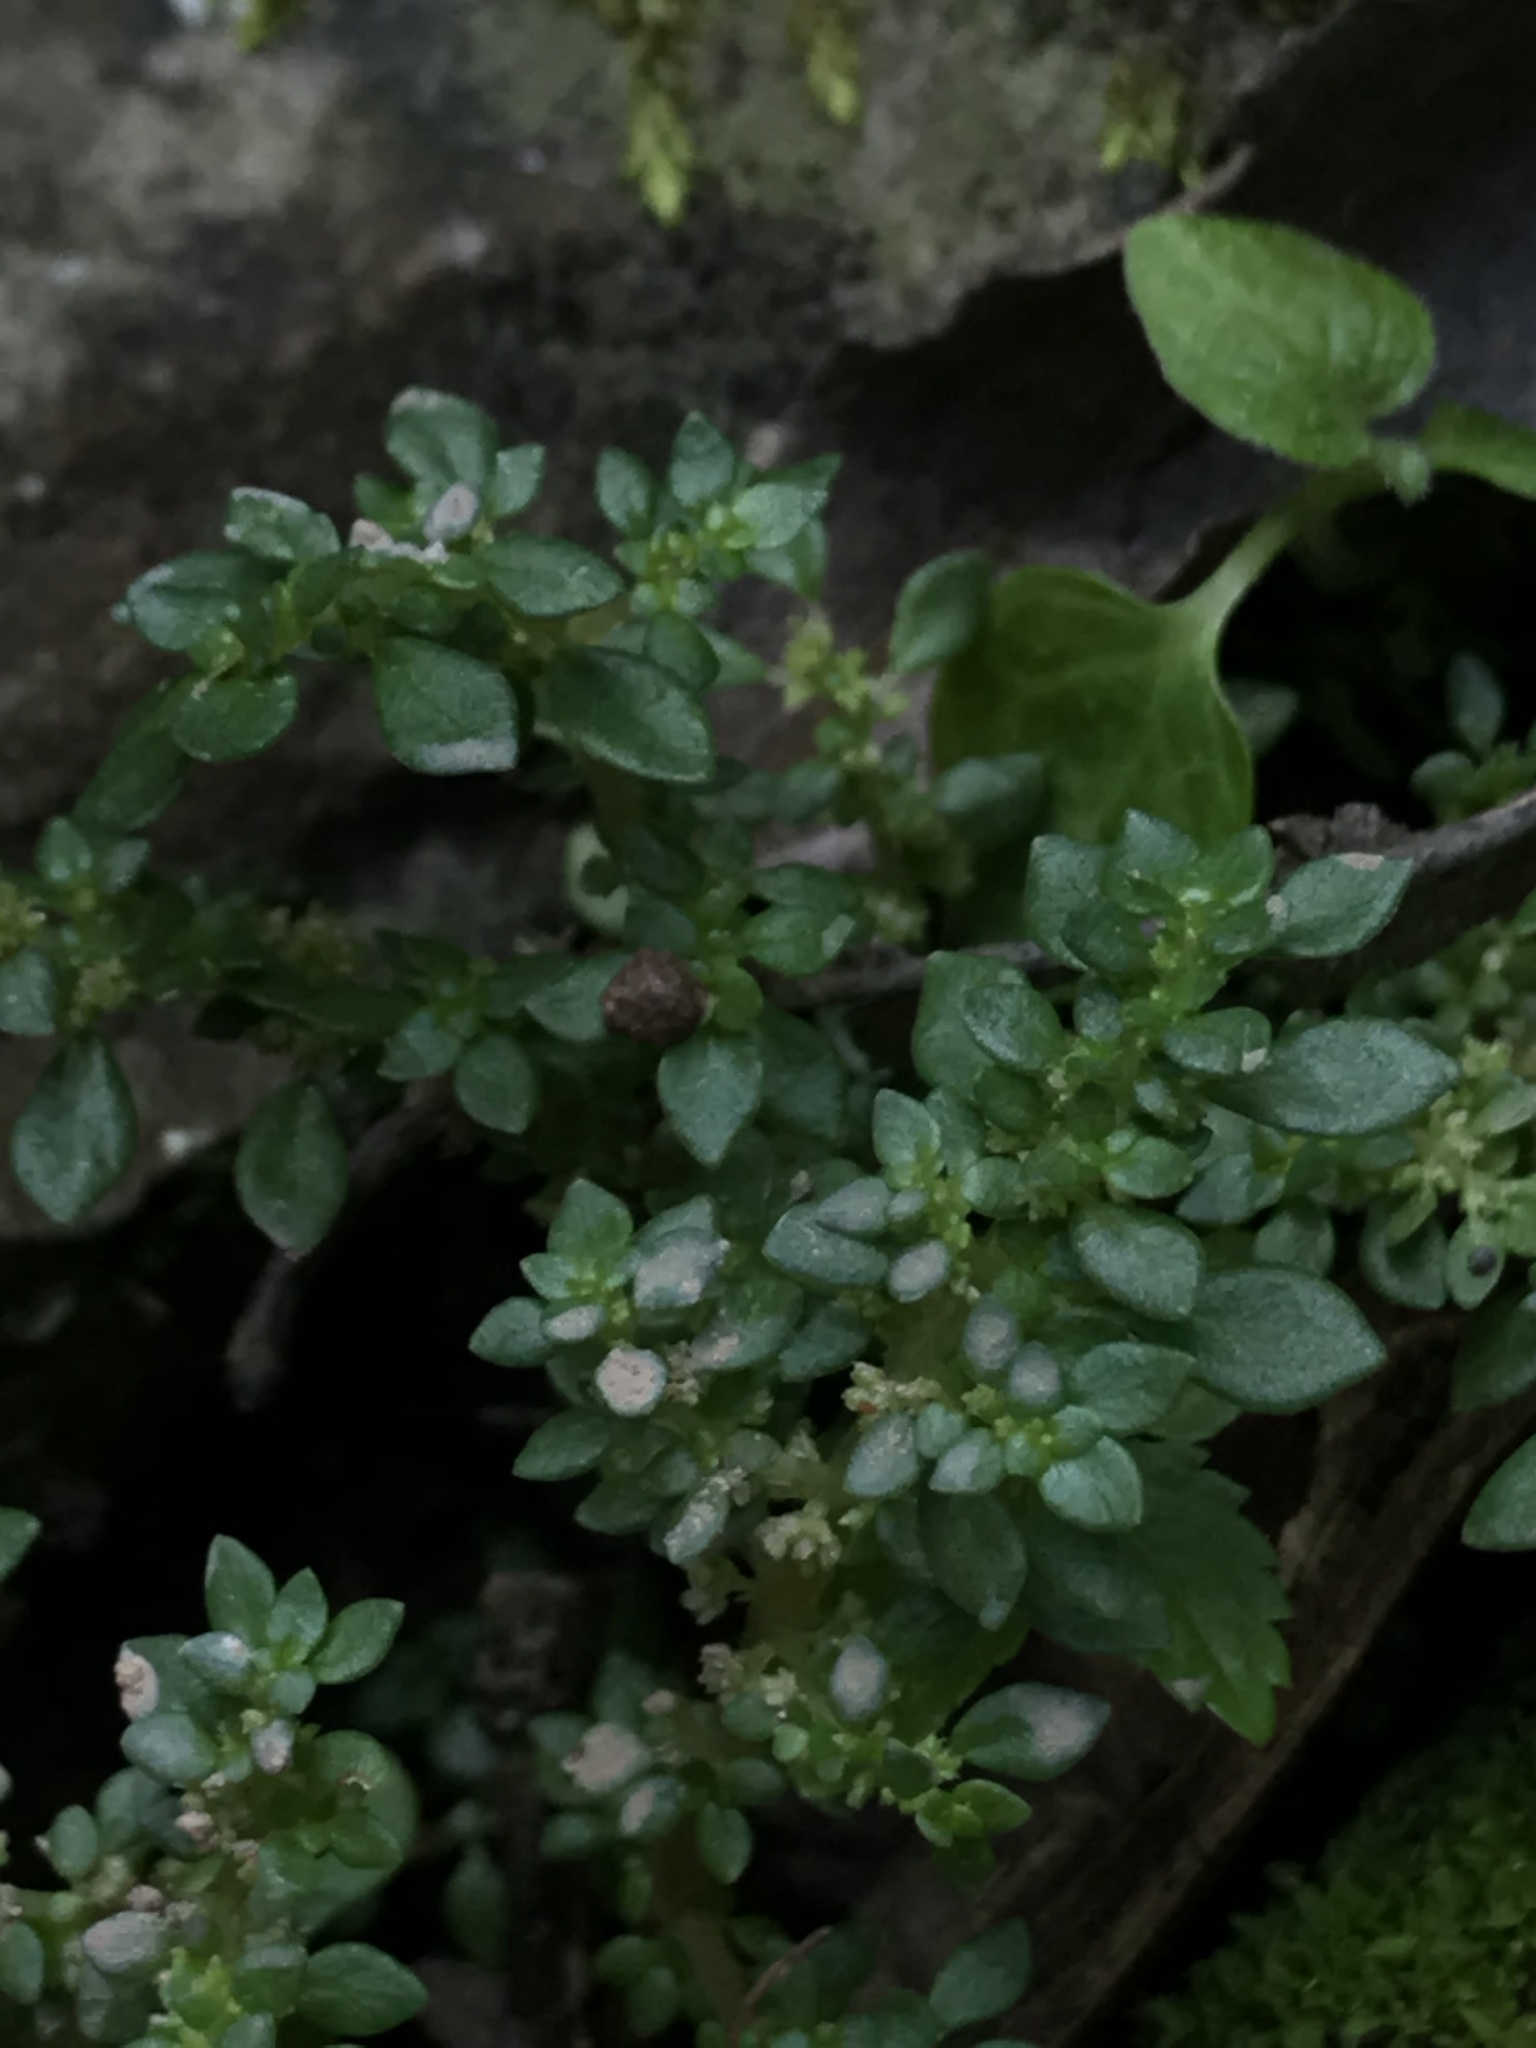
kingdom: Plantae
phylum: Tracheophyta
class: Magnoliopsida
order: Rosales
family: Urticaceae
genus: Pilea
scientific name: Pilea microphylla
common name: Artillery-plant
